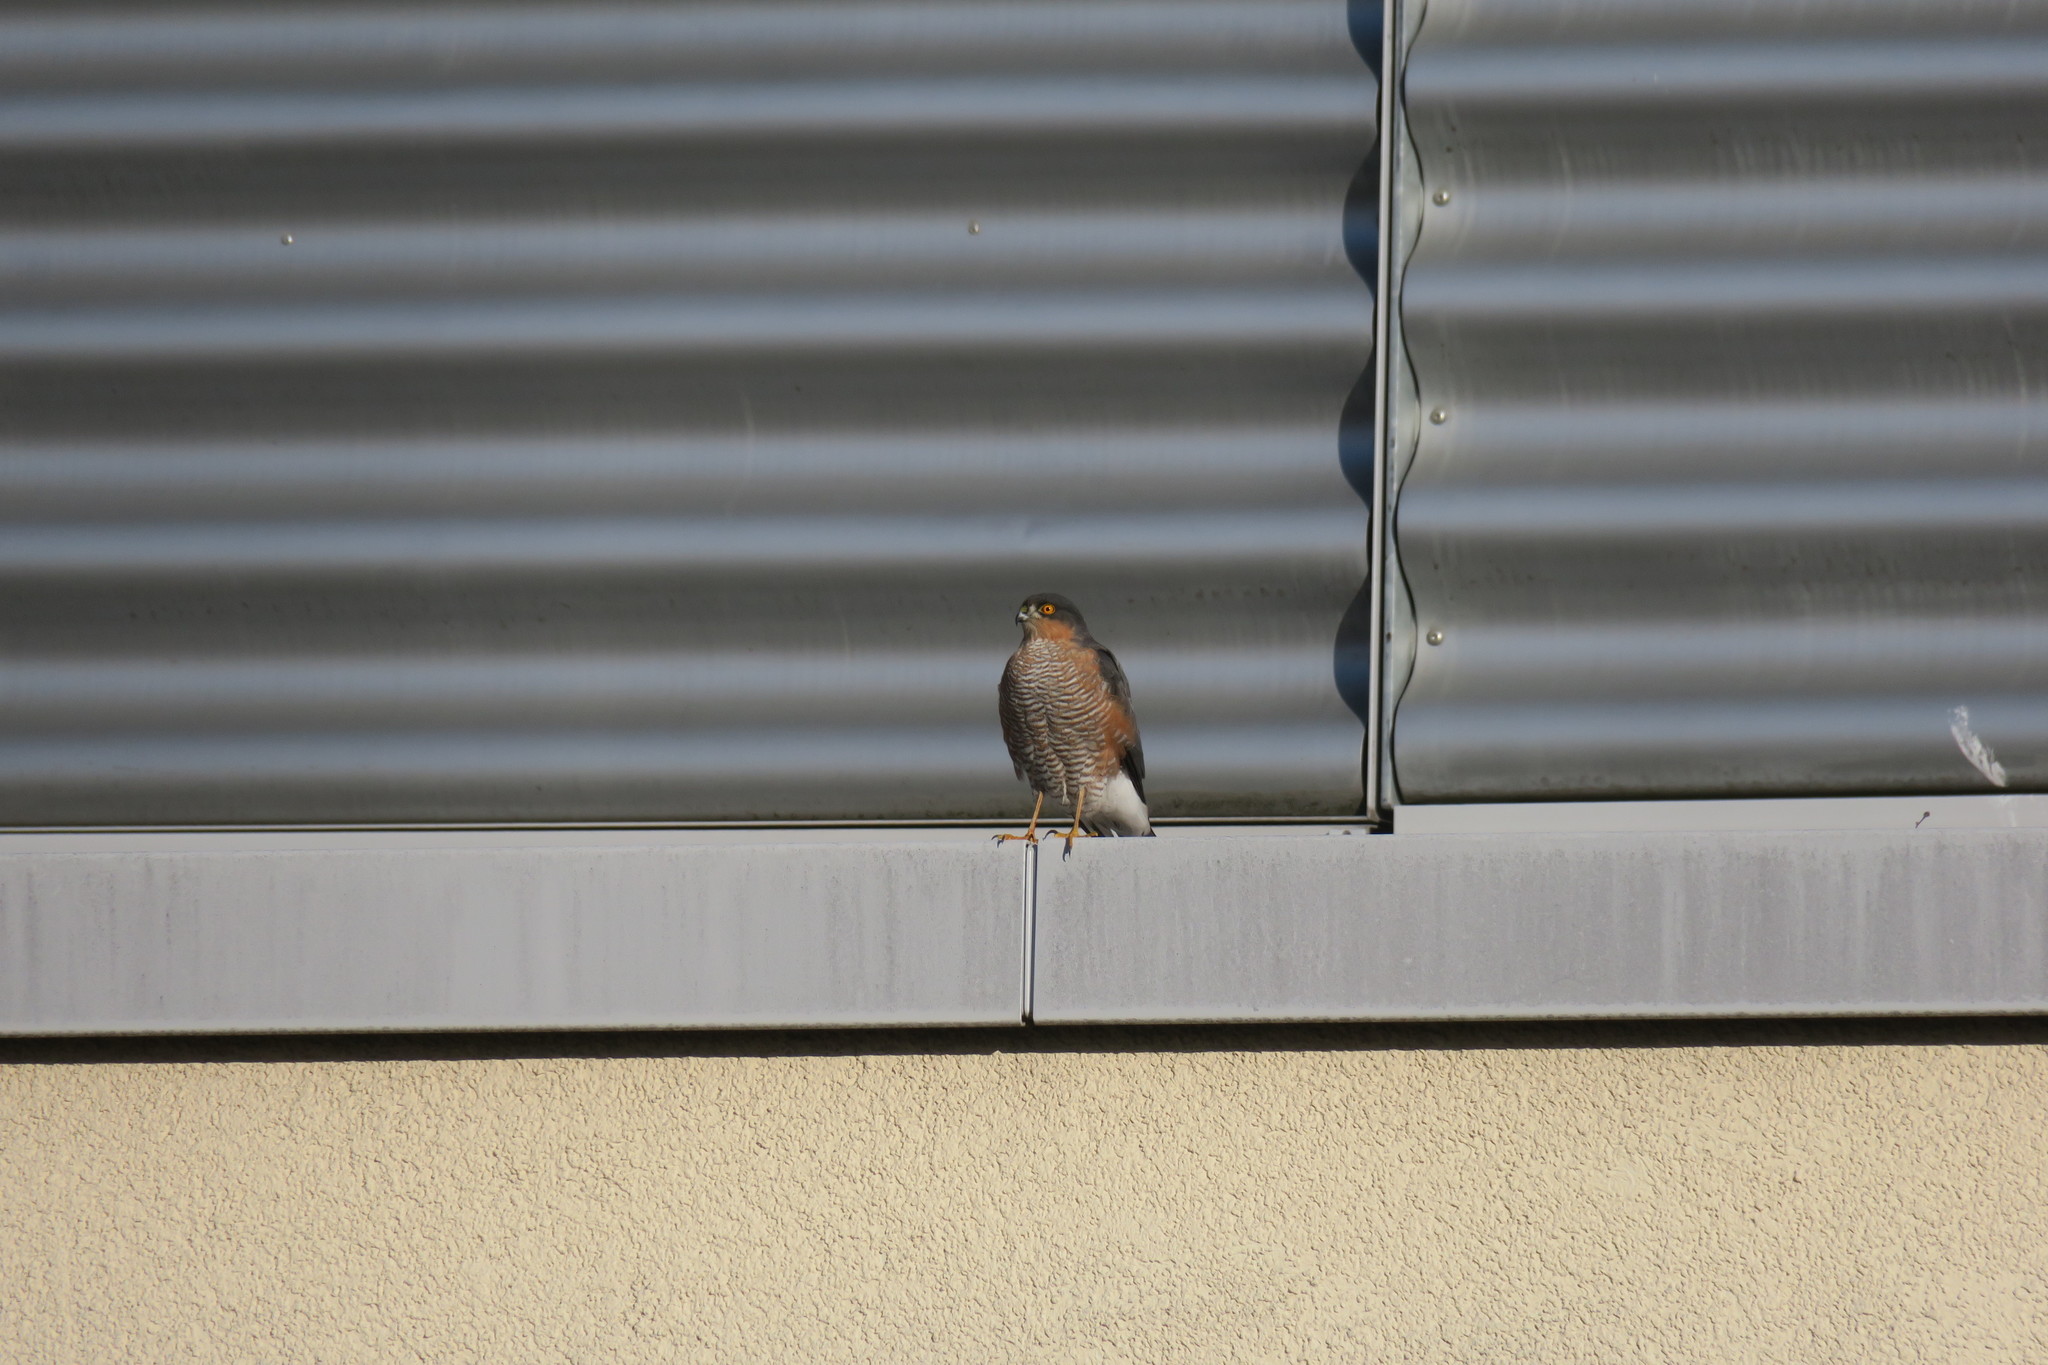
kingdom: Animalia
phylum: Chordata
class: Aves
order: Accipitriformes
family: Accipitridae
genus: Accipiter
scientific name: Accipiter nisus
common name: Eurasian sparrowhawk
